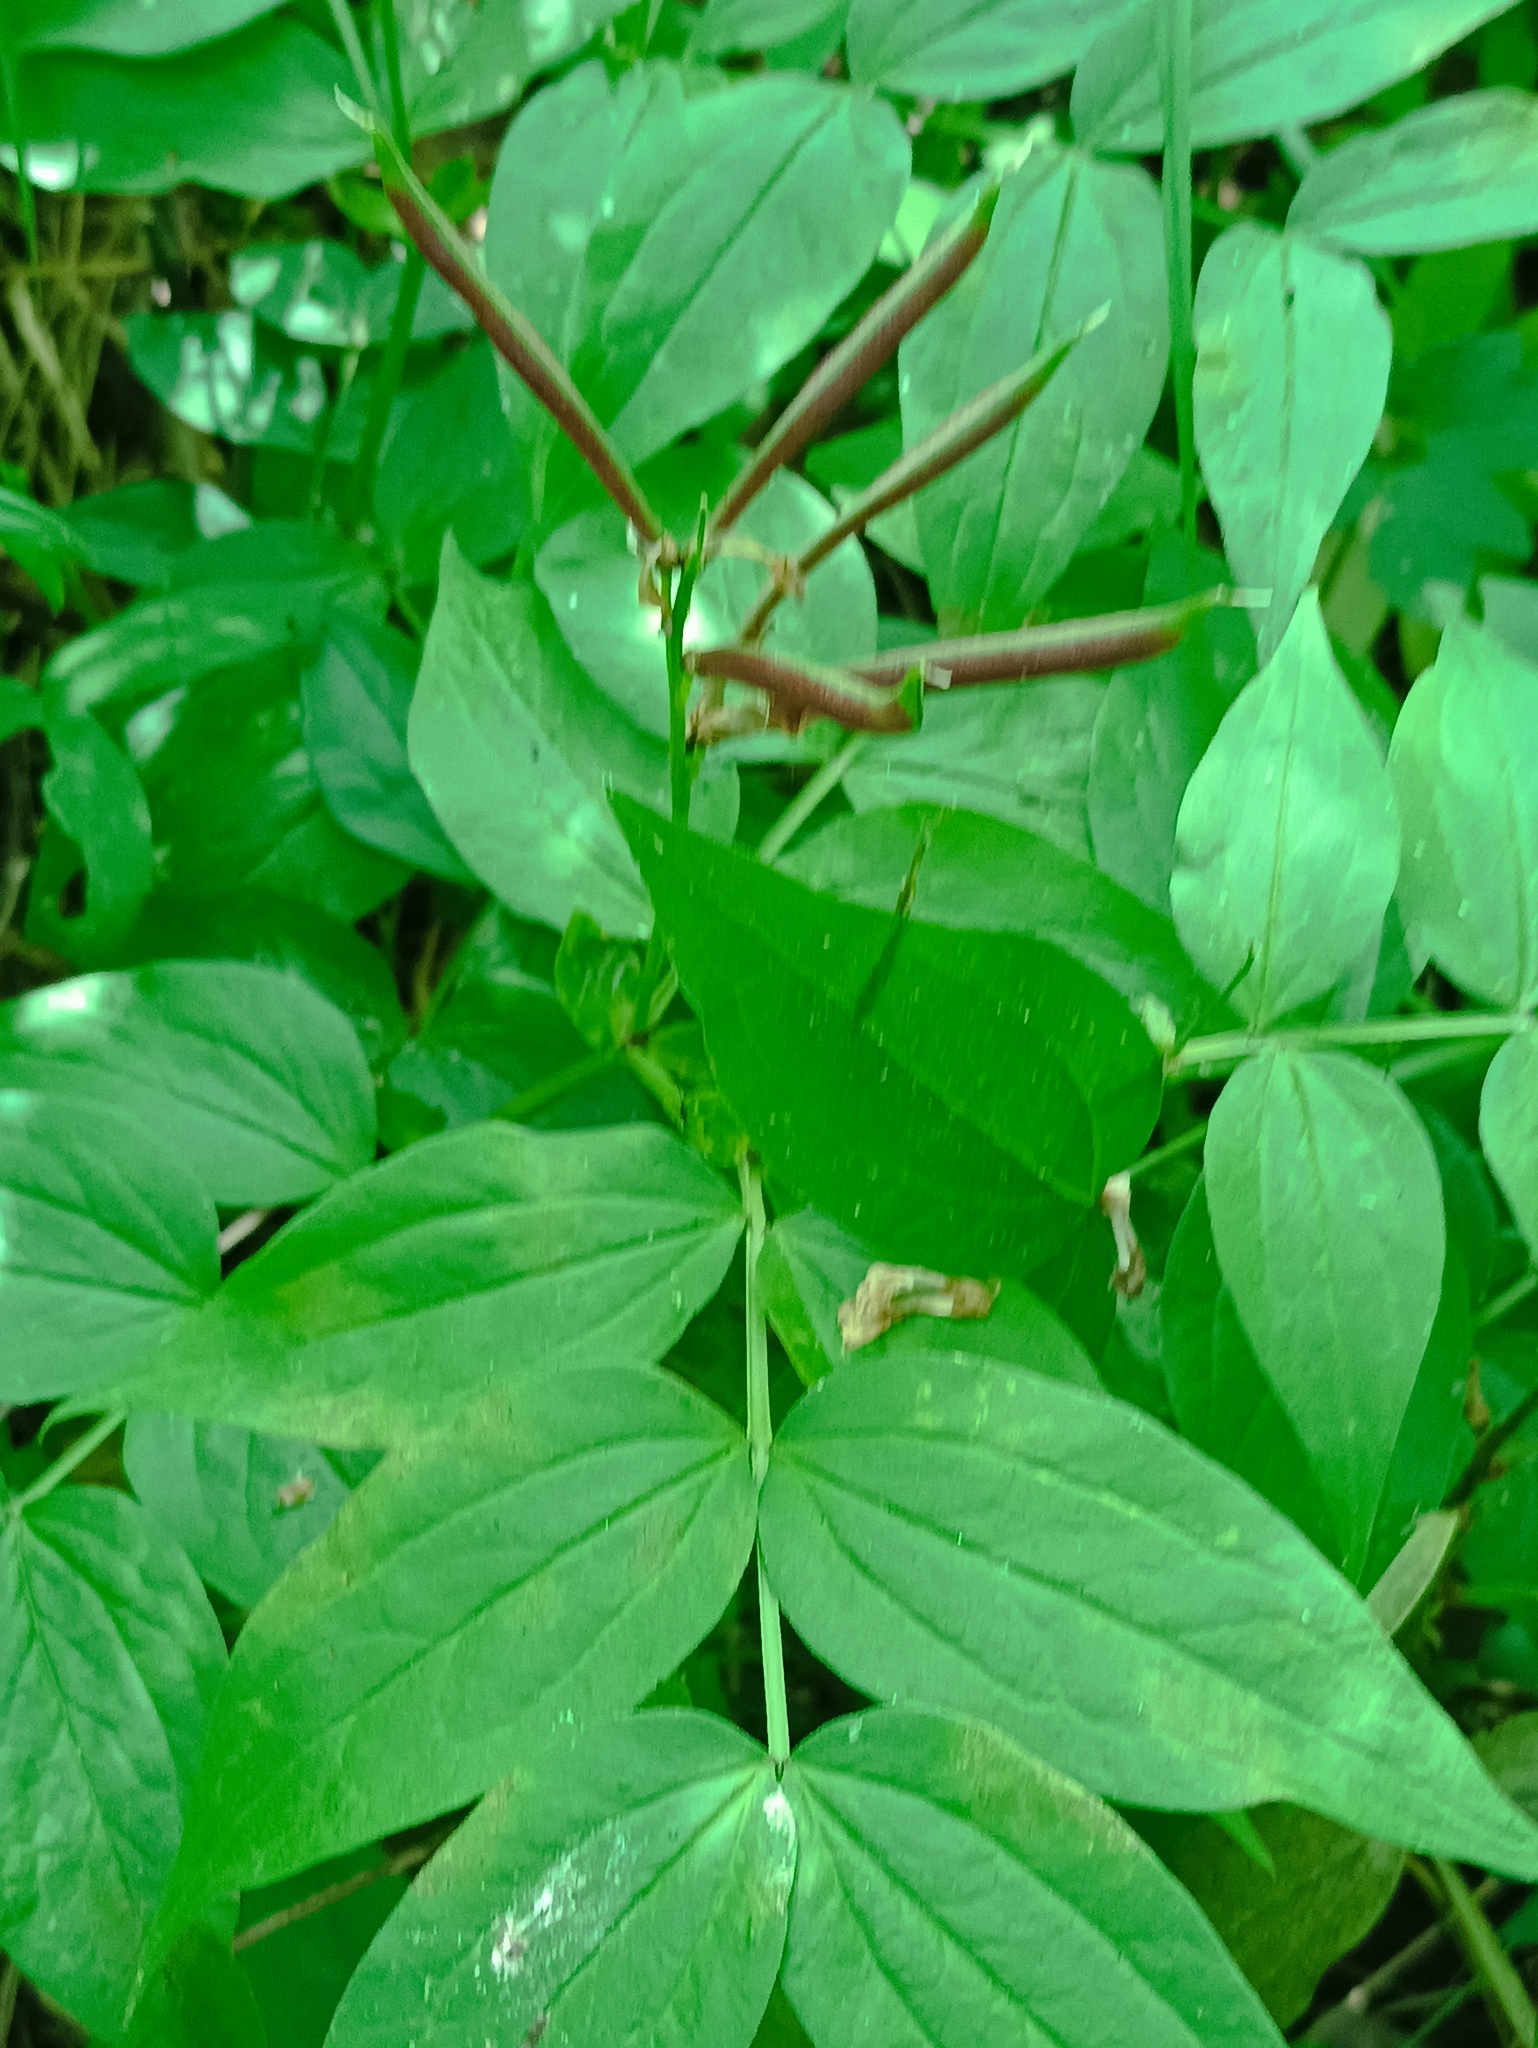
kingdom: Plantae
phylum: Tracheophyta
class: Magnoliopsida
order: Fabales
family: Fabaceae
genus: Lathyrus
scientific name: Lathyrus vernus
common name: Spring pea
